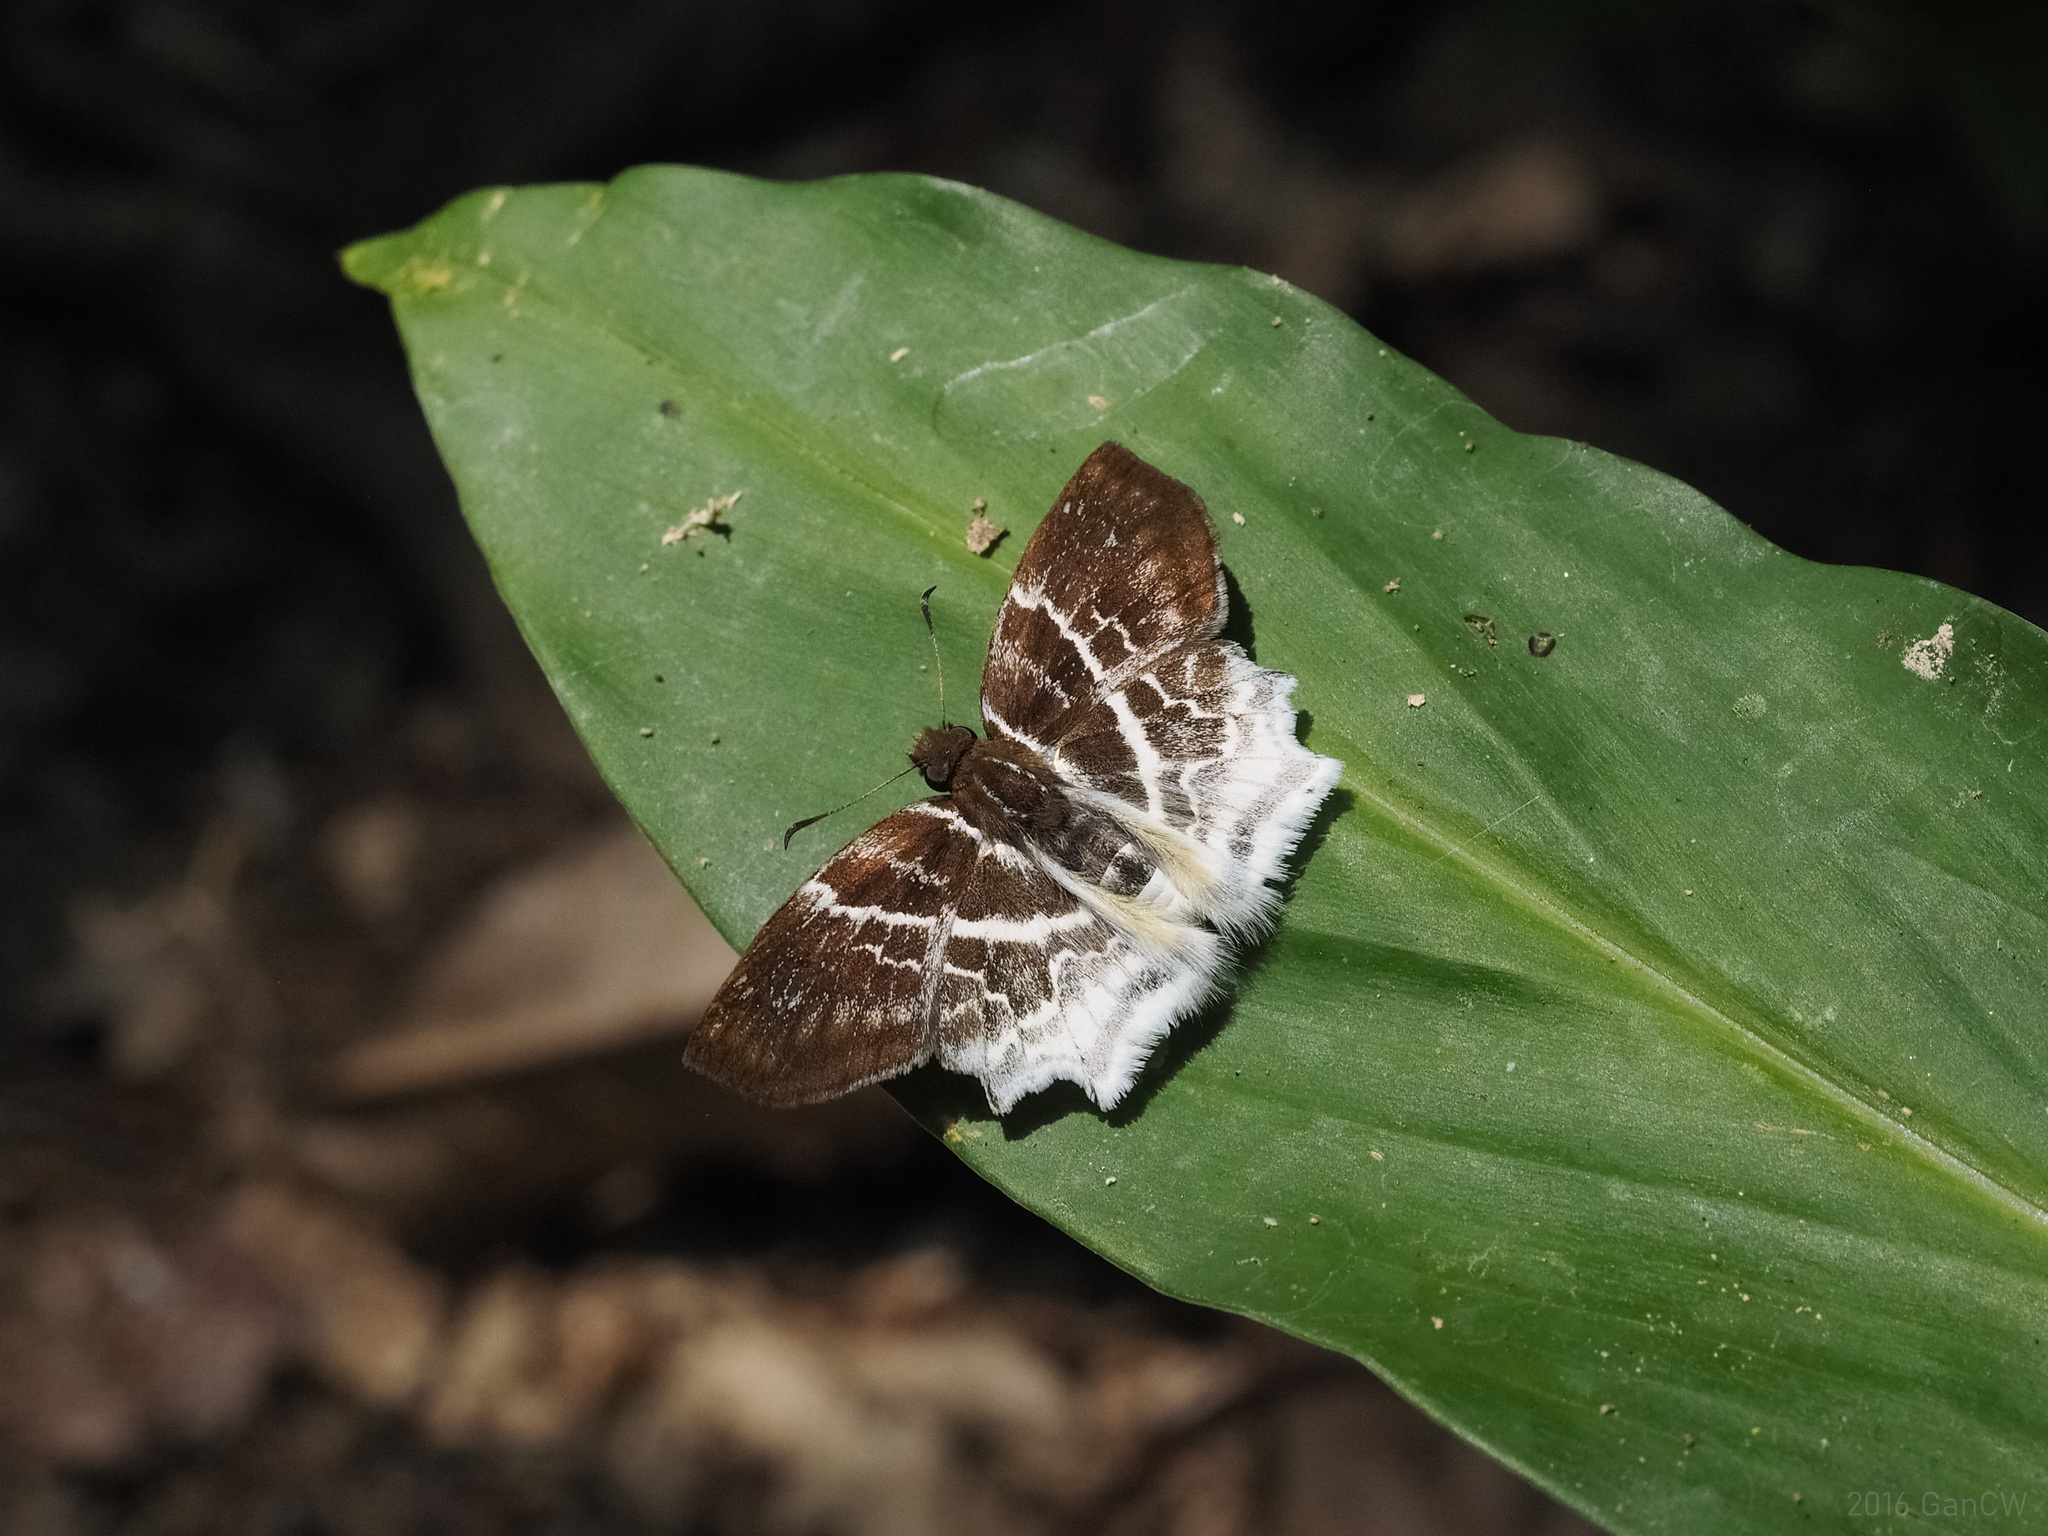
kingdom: Animalia
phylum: Arthropoda
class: Insecta
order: Lepidoptera
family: Hesperiidae
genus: Odontoptilum
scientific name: Odontoptilum pygela
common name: Banded angle
